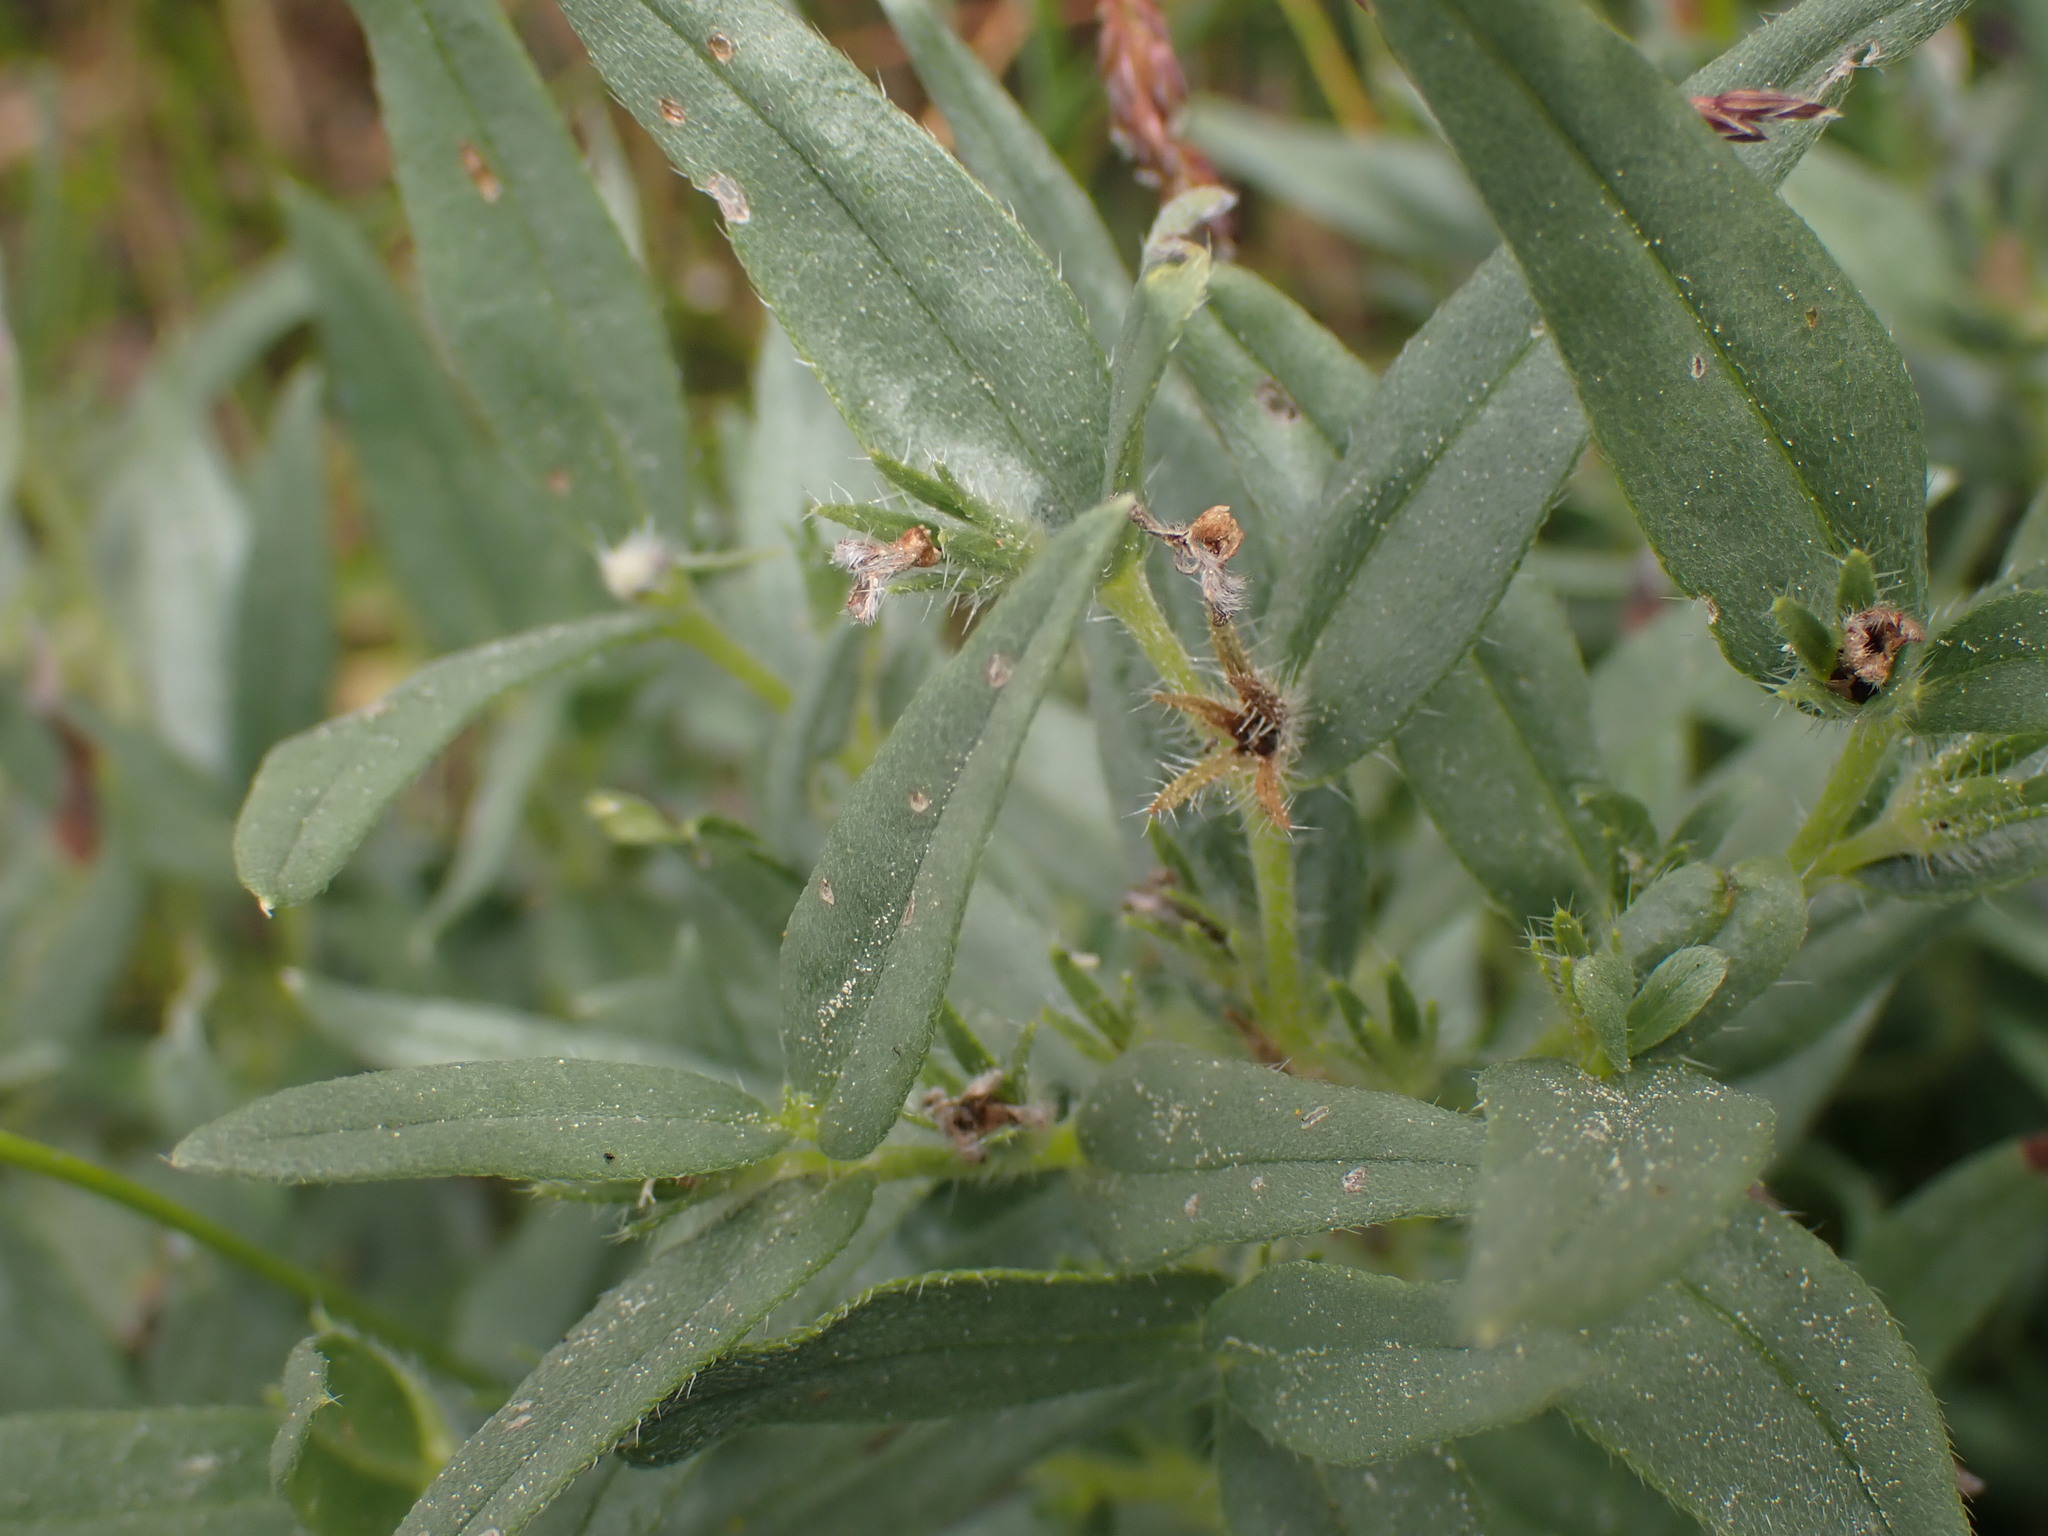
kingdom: Plantae
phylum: Tracheophyta
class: Magnoliopsida
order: Boraginales
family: Boraginaceae
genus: Lithospermum
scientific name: Lithospermum ruderale
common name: Western gromwell
